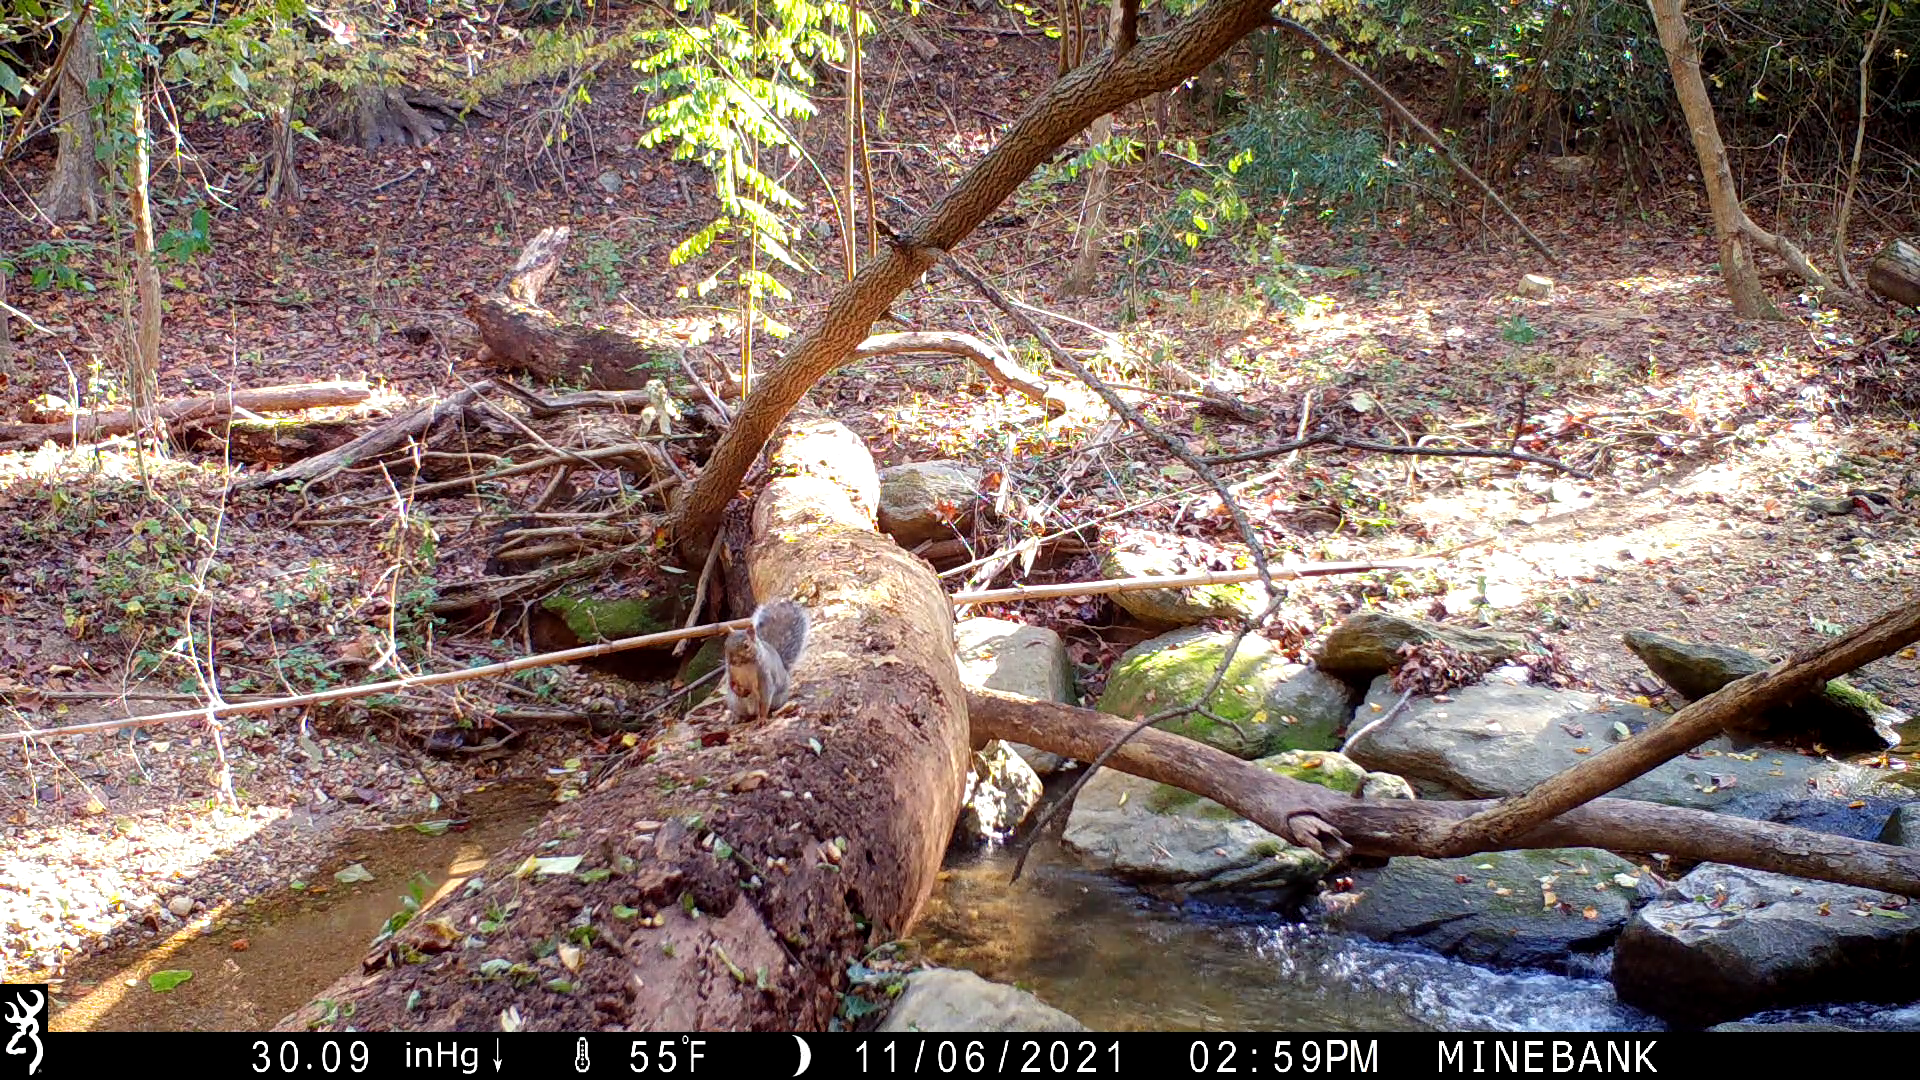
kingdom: Animalia
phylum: Chordata
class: Mammalia
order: Rodentia
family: Sciuridae
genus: Sciurus
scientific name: Sciurus carolinensis
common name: Eastern gray squirrel
